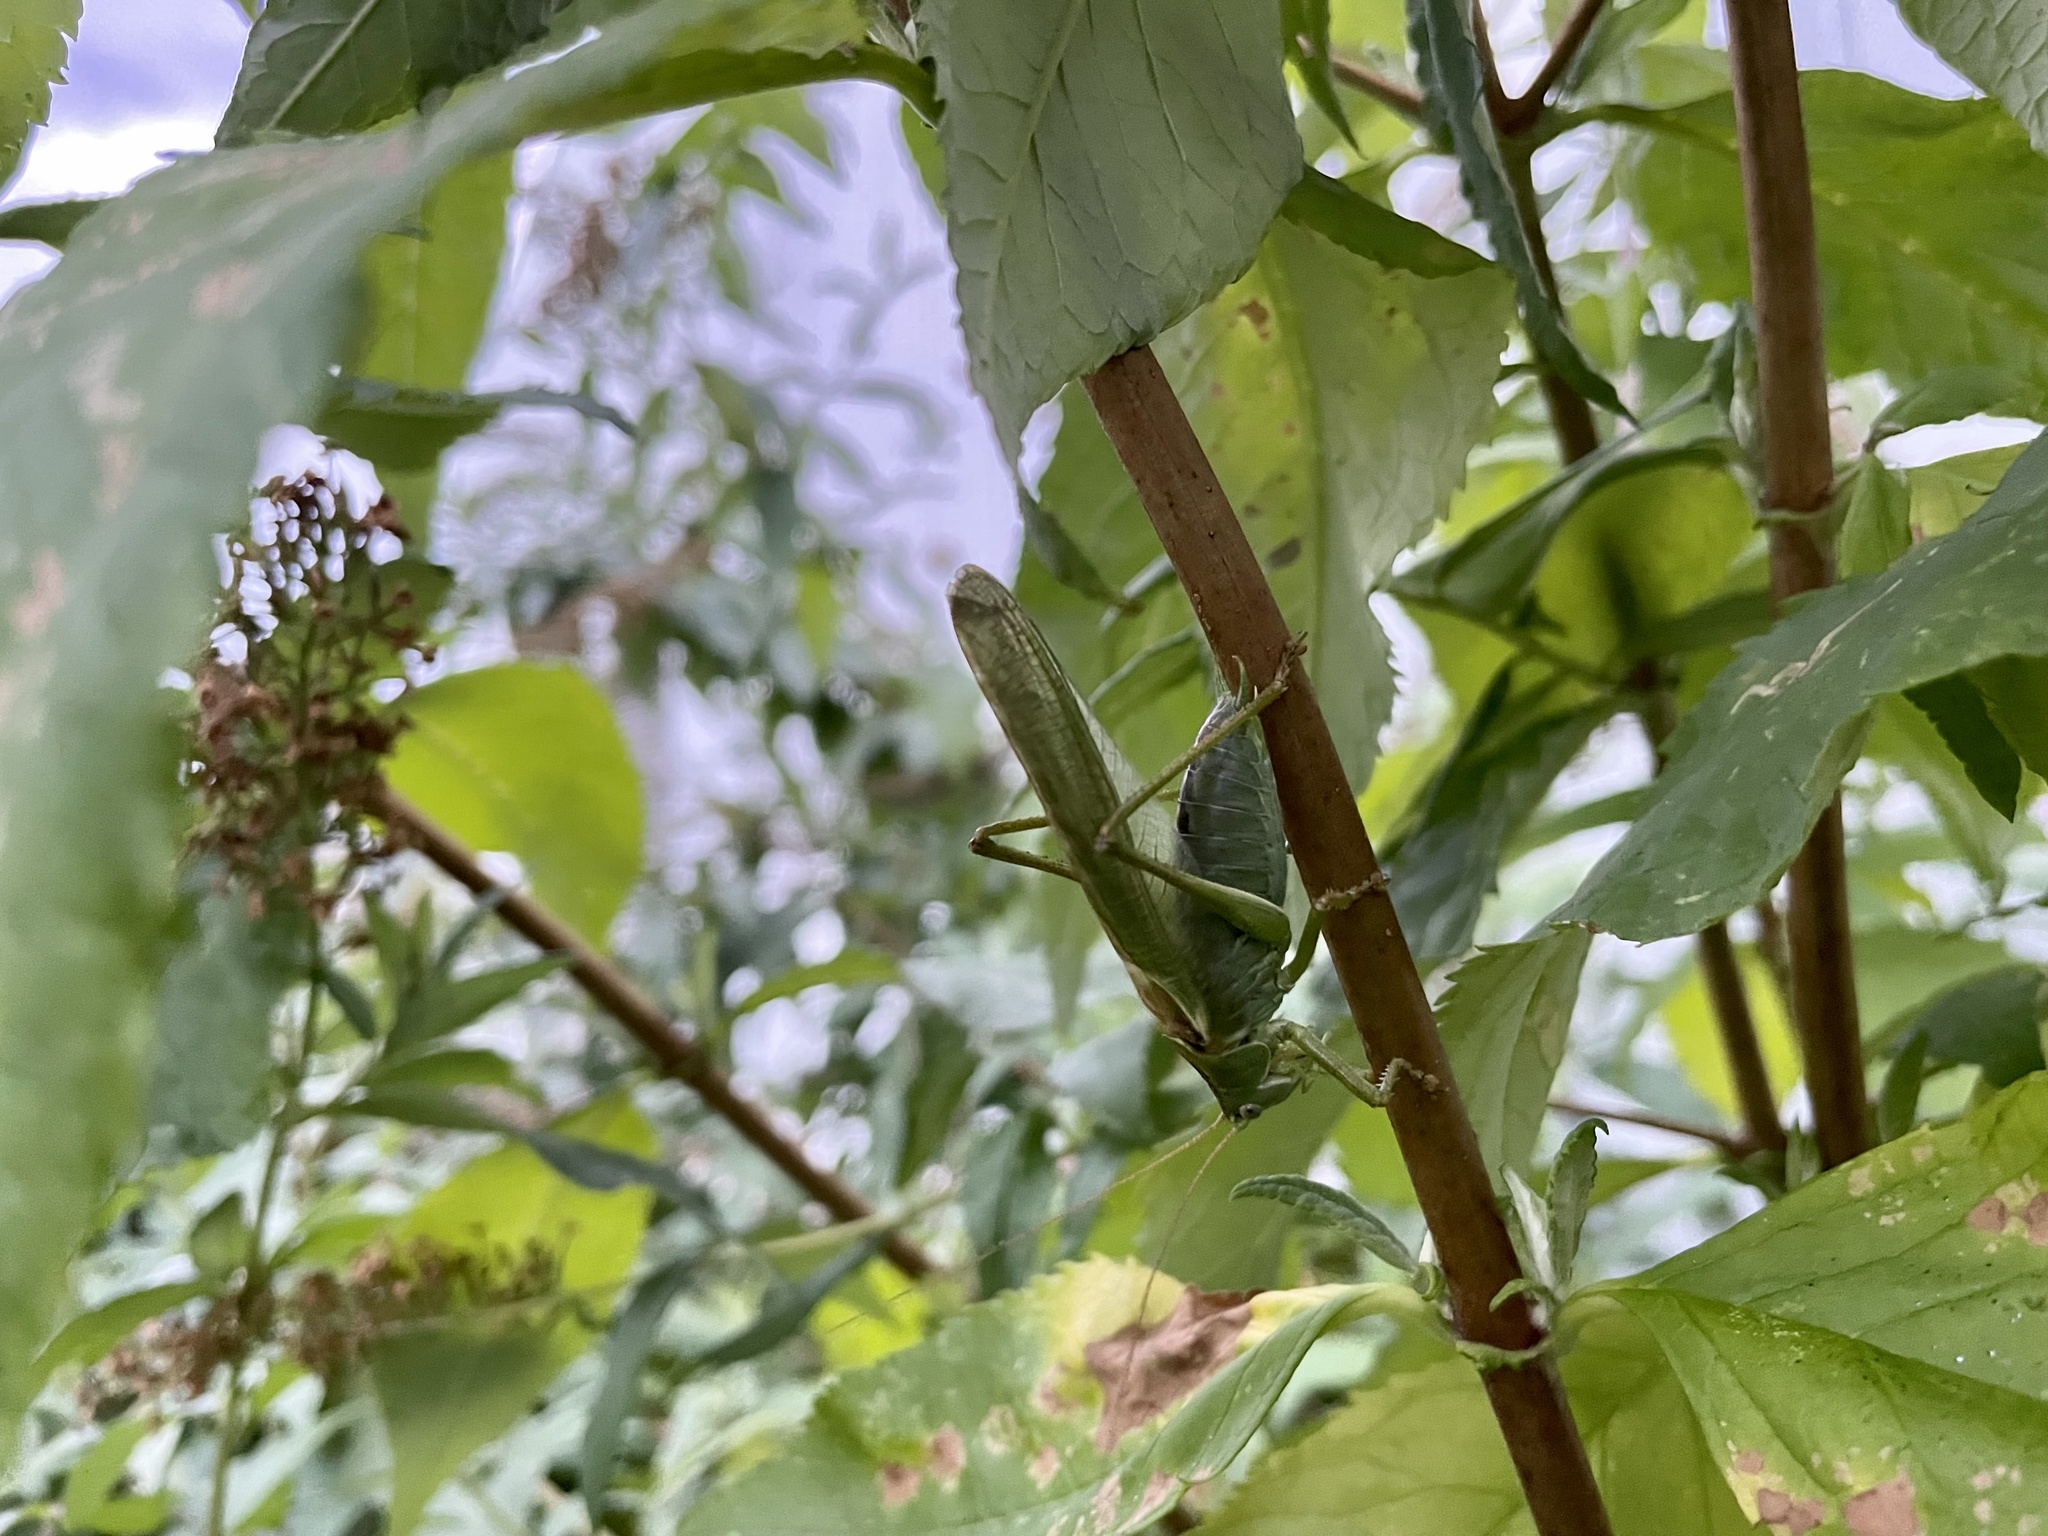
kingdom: Animalia
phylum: Arthropoda
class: Insecta
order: Orthoptera
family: Tettigoniidae
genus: Tettigonia
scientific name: Tettigonia viridissima
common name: Great green bush-cricket
